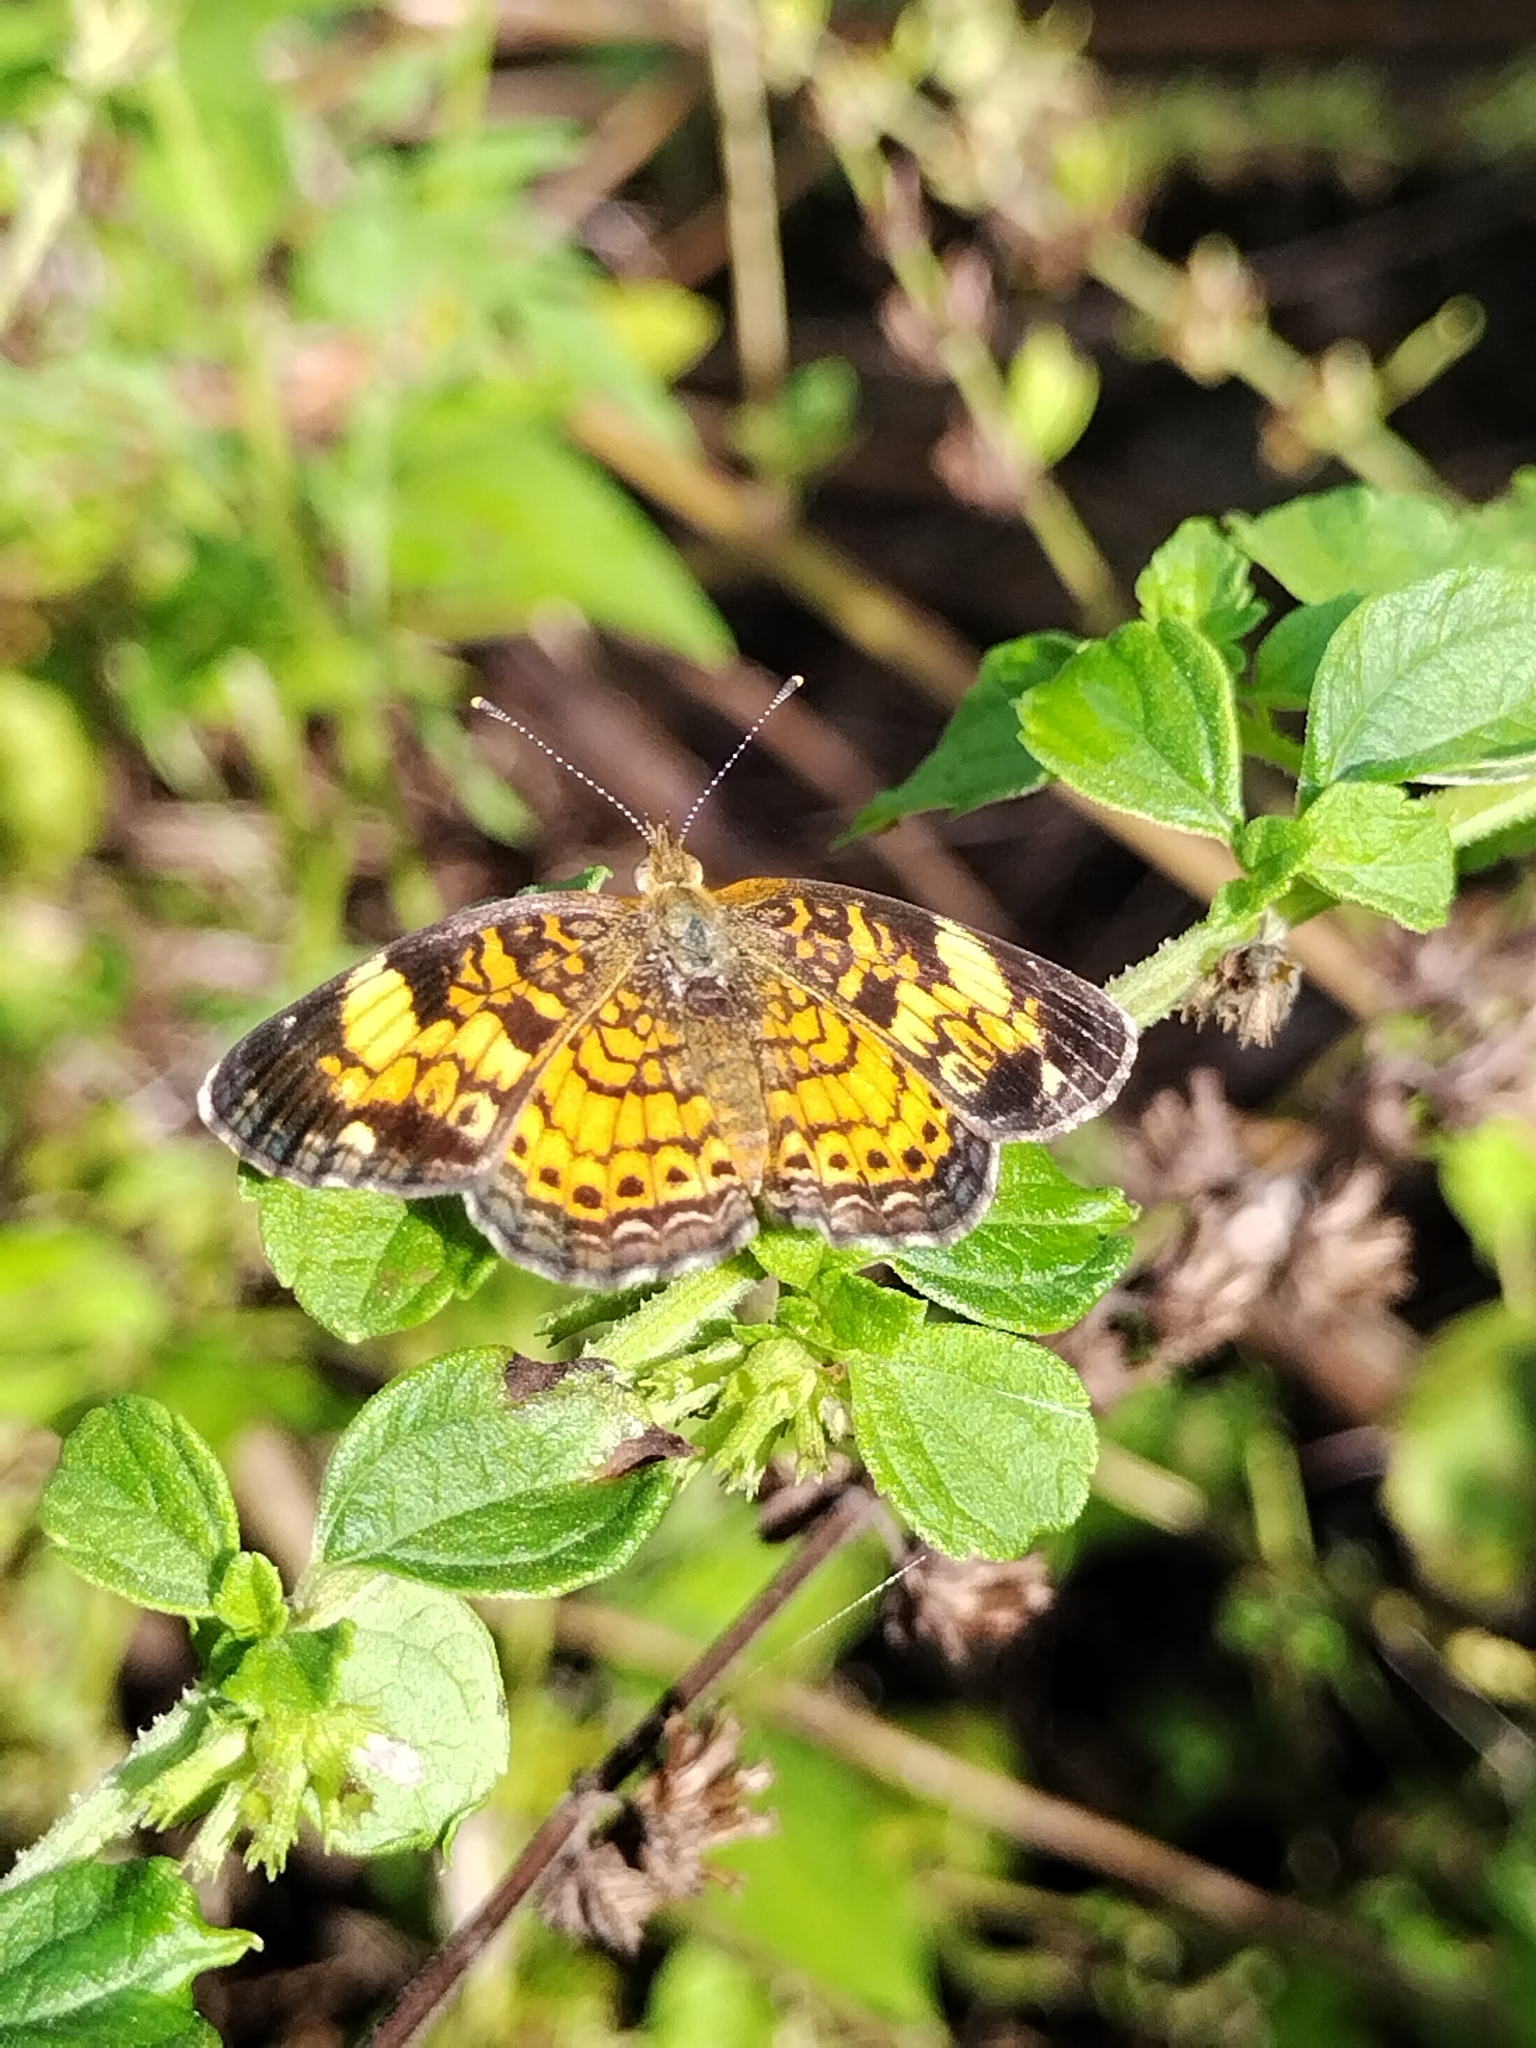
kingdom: Animalia
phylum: Arthropoda
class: Insecta
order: Lepidoptera
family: Nymphalidae
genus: Phyciodes
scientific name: Phyciodes tharos
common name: Pearl crescent
